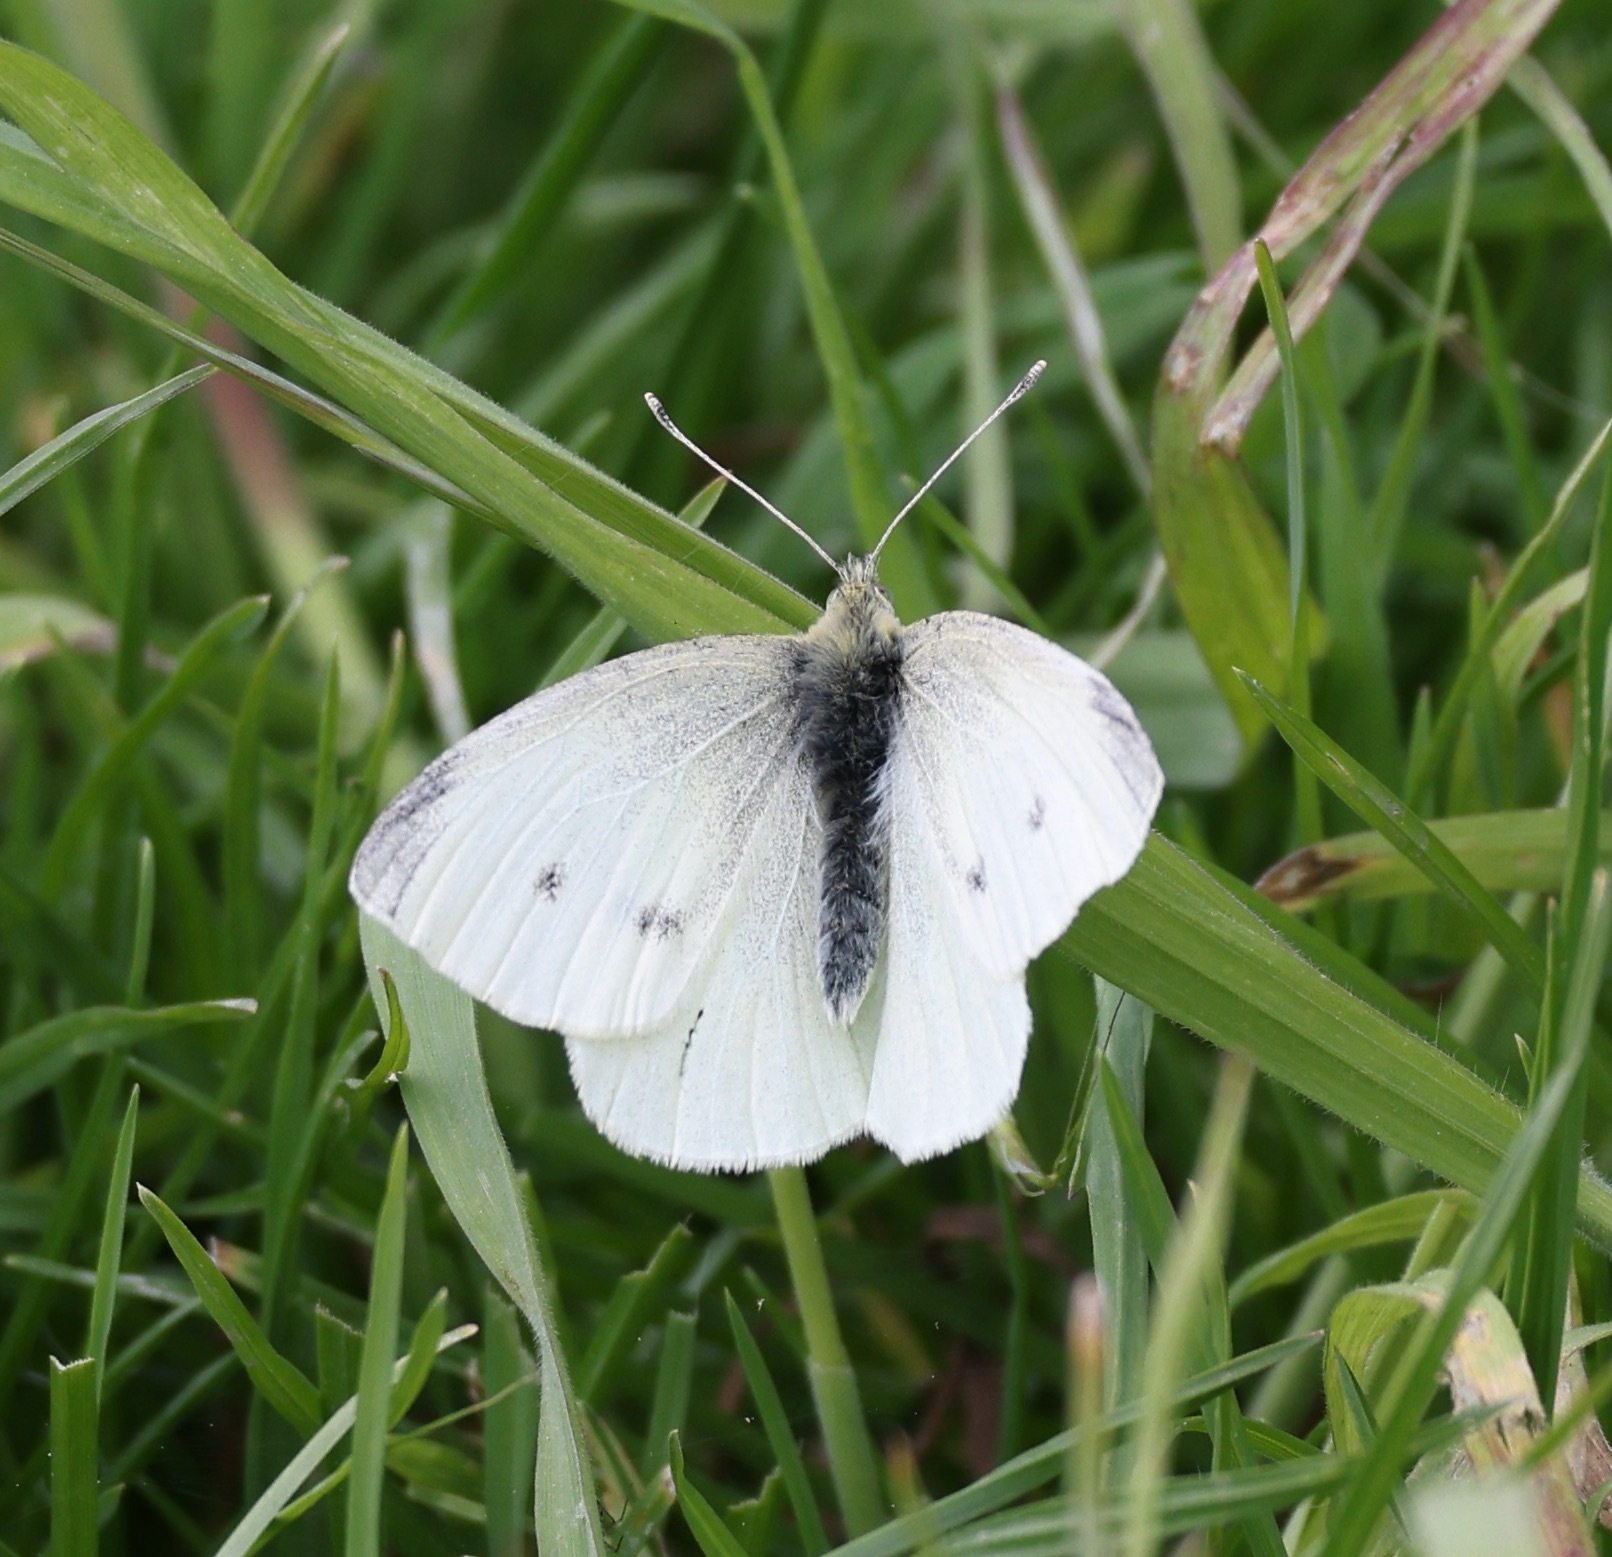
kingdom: Animalia
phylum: Arthropoda
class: Insecta
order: Lepidoptera
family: Pieridae
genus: Pieris
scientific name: Pieris rapae
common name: Small white
